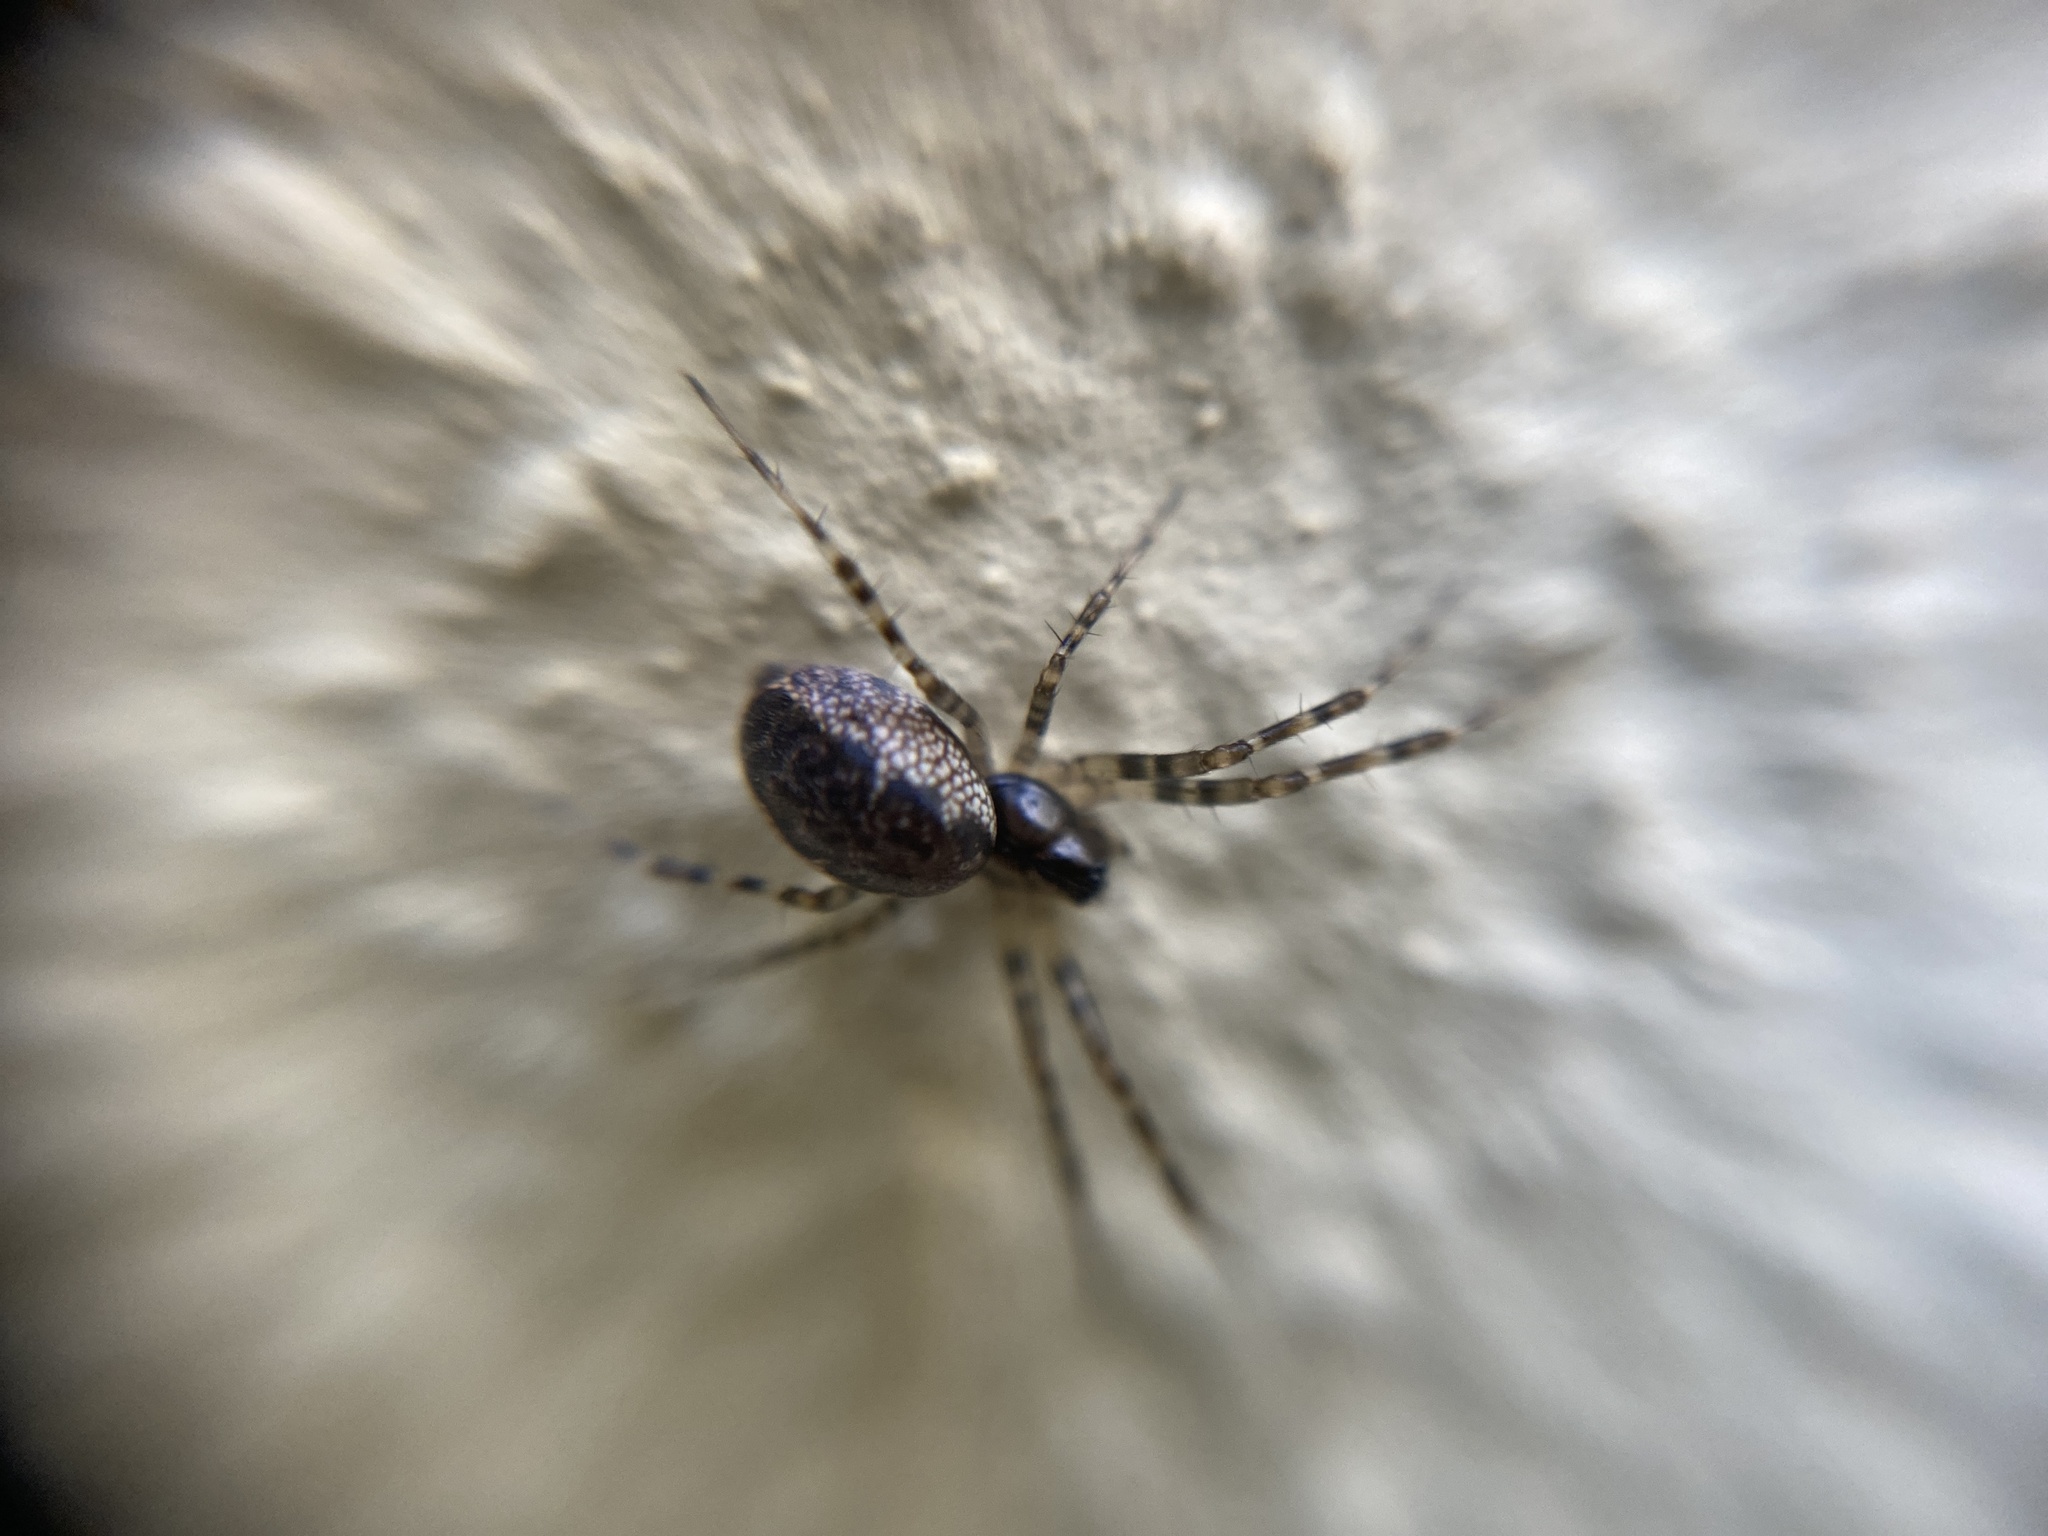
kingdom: Animalia
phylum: Arthropoda
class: Arachnida
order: Araneae
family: Linyphiidae
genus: Neriene
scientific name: Neriene montana
